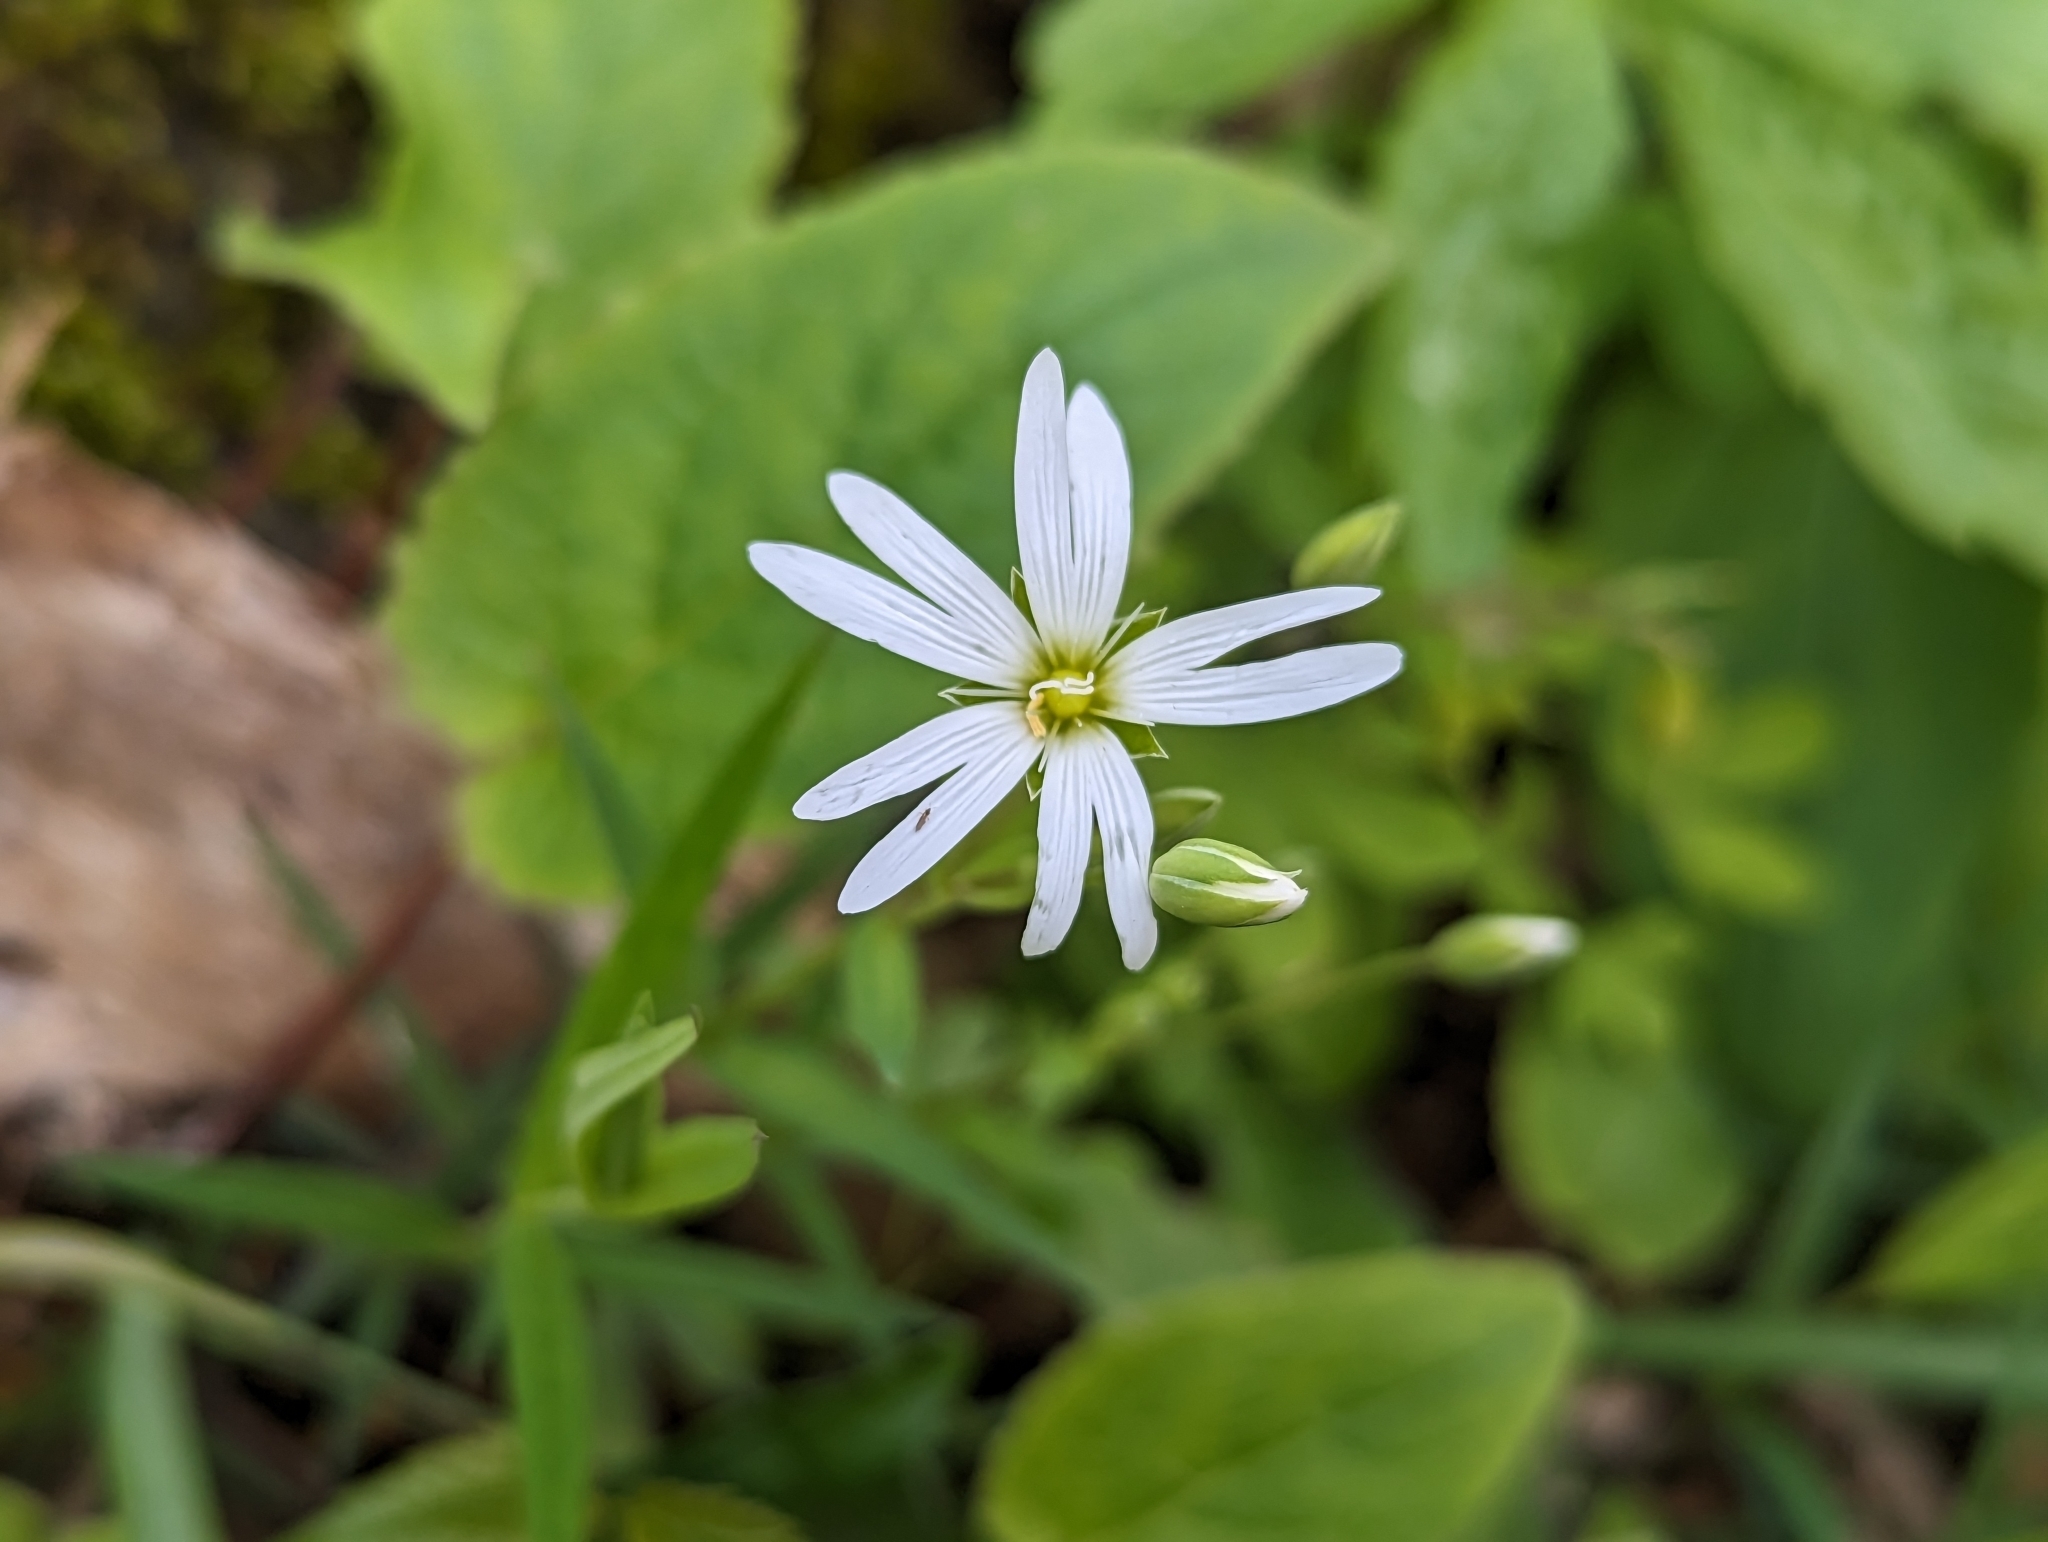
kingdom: Plantae
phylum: Tracheophyta
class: Magnoliopsida
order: Caryophyllales
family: Caryophyllaceae
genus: Rabelera
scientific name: Rabelera holostea
